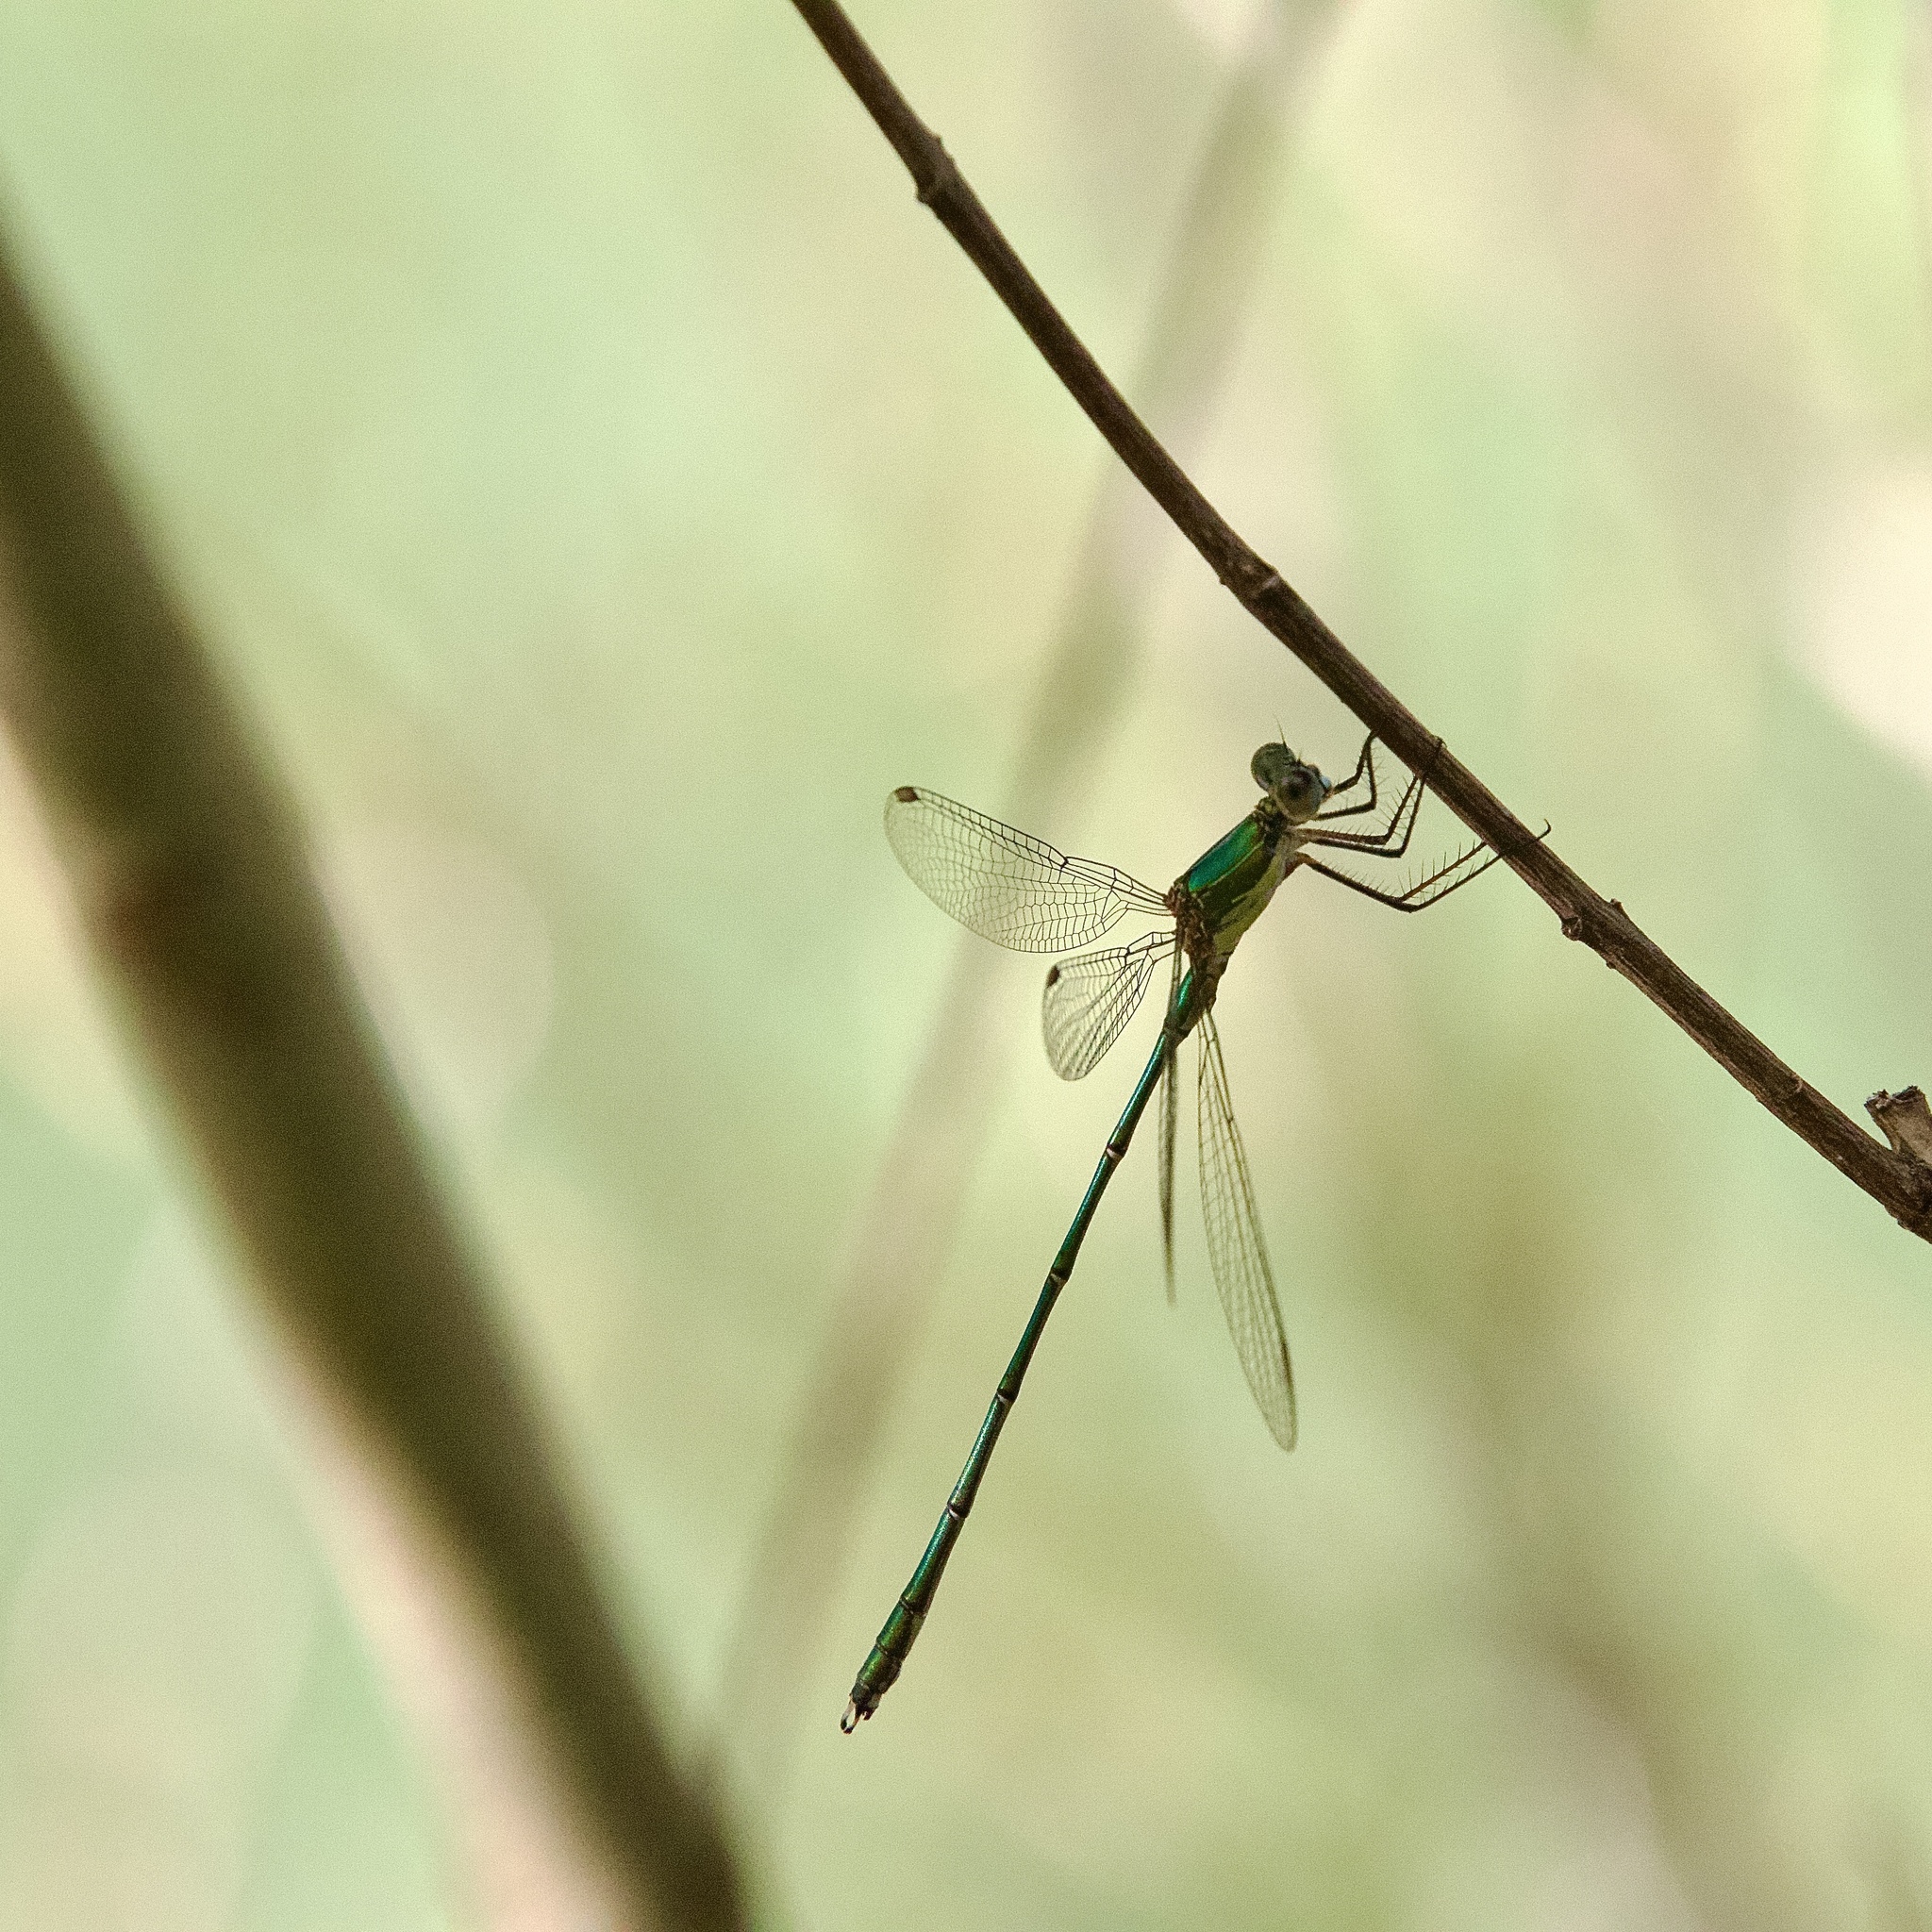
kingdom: Animalia
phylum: Arthropoda
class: Insecta
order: Odonata
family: Lestidae
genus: Chalcolestes
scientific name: Chalcolestes viridis
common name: Green emerald damselfly
